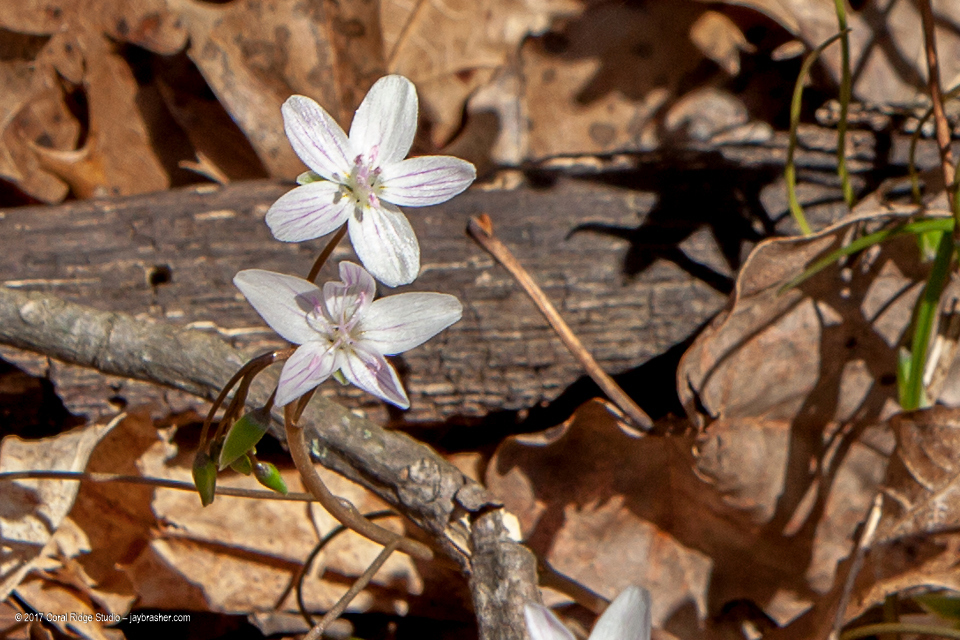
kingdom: Plantae
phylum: Tracheophyta
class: Magnoliopsida
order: Caryophyllales
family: Montiaceae
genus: Claytonia
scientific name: Claytonia virginica
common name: Virginia springbeauty
